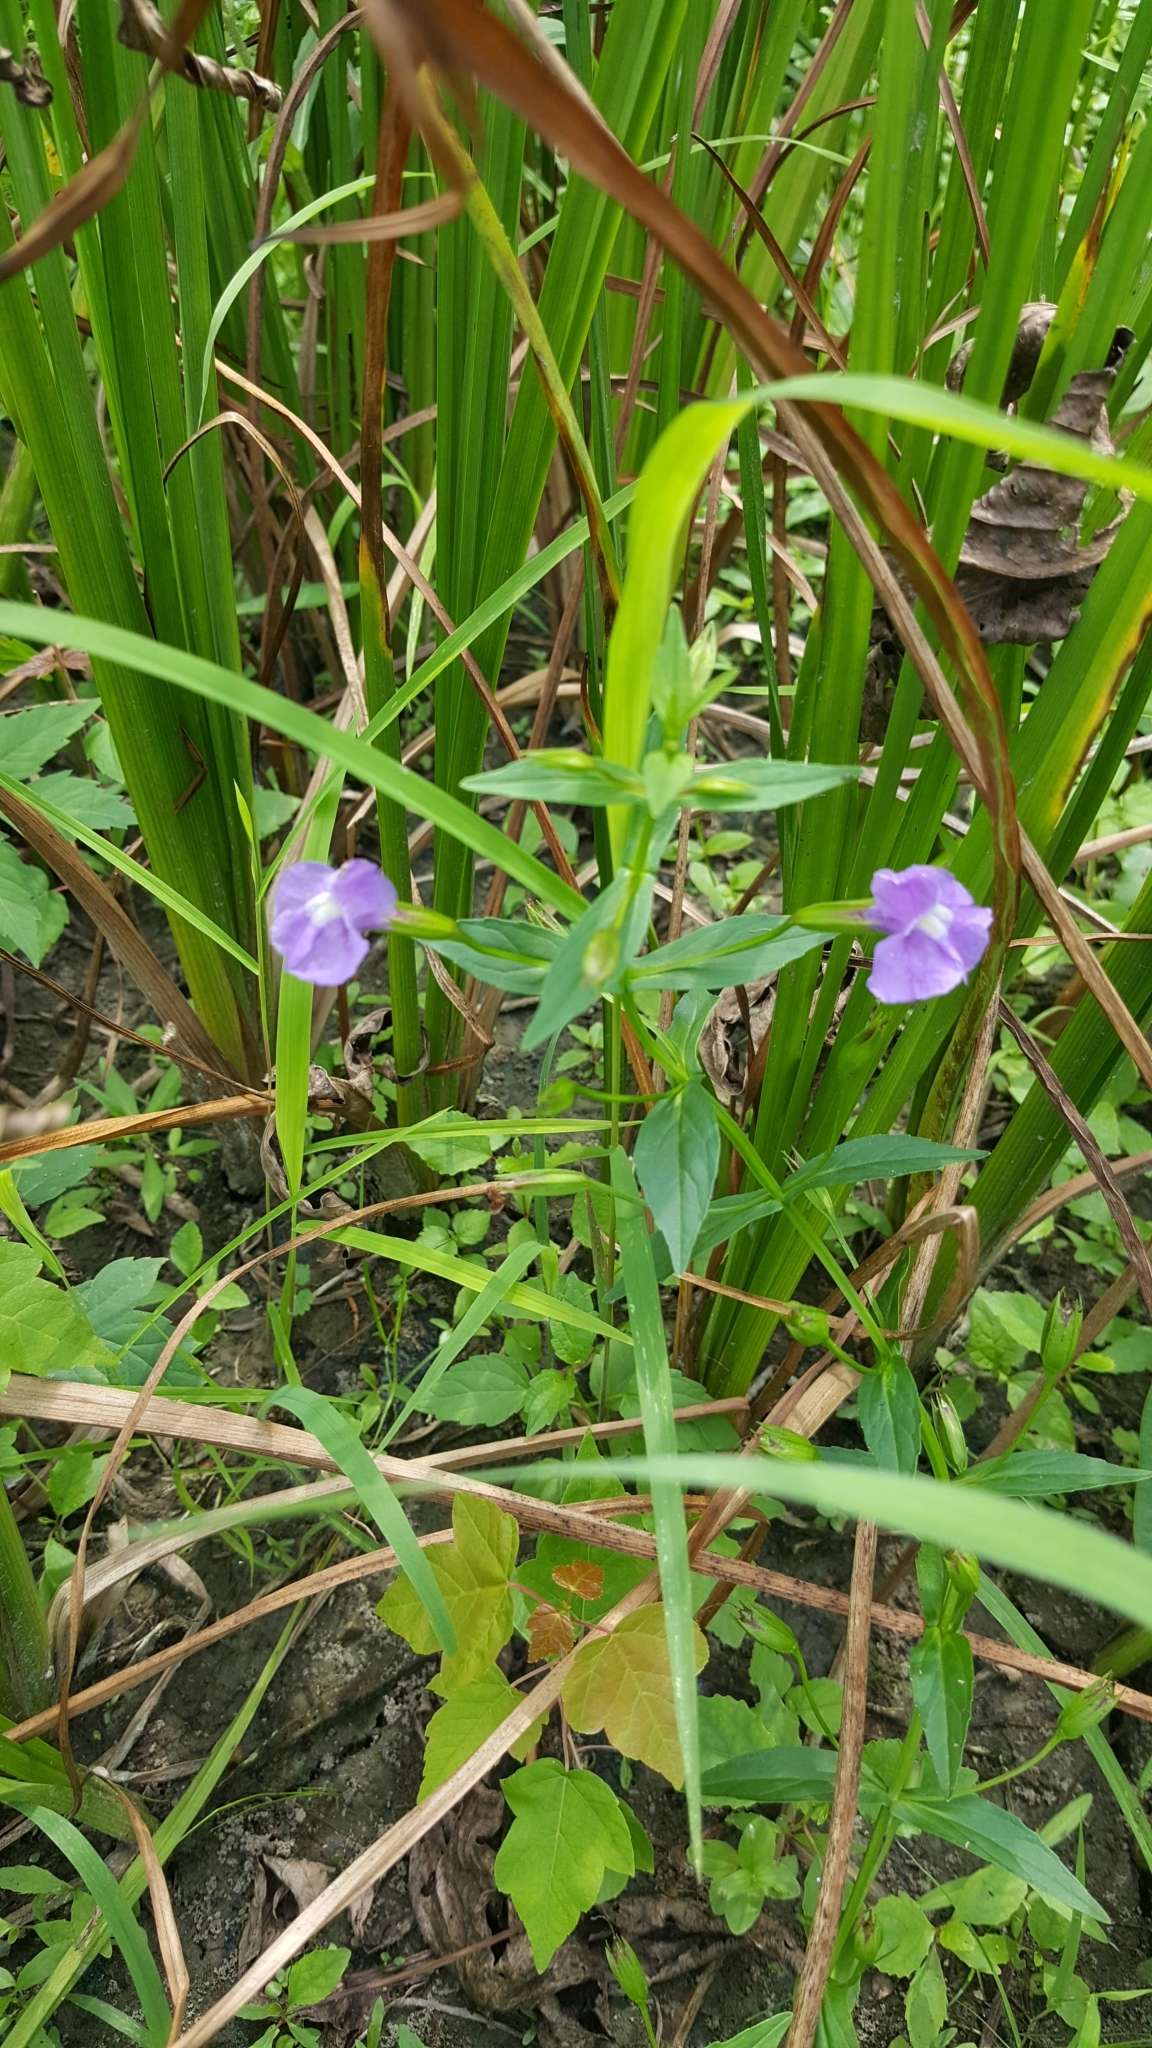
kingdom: Plantae
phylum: Tracheophyta
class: Magnoliopsida
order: Lamiales
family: Phrymaceae
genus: Mimulus
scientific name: Mimulus ringens
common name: Allegheny monkeyflower
